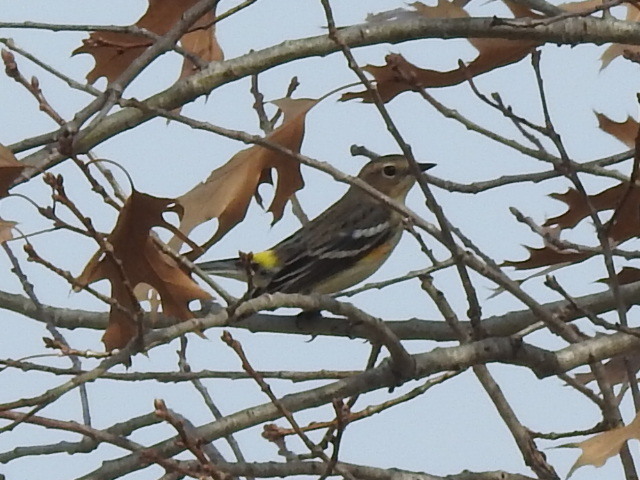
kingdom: Animalia
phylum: Chordata
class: Aves
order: Passeriformes
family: Parulidae
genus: Setophaga
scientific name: Setophaga coronata
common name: Myrtle warbler
